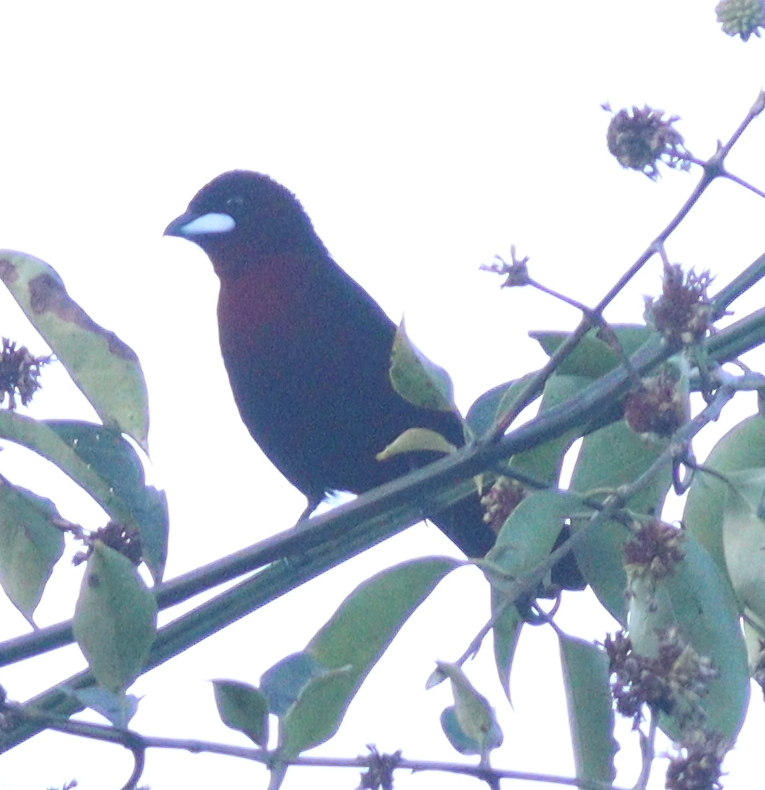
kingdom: Animalia
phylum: Chordata
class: Aves
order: Passeriformes
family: Thraupidae
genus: Ramphocelus
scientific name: Ramphocelus carbo
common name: Silver-beaked tanager
